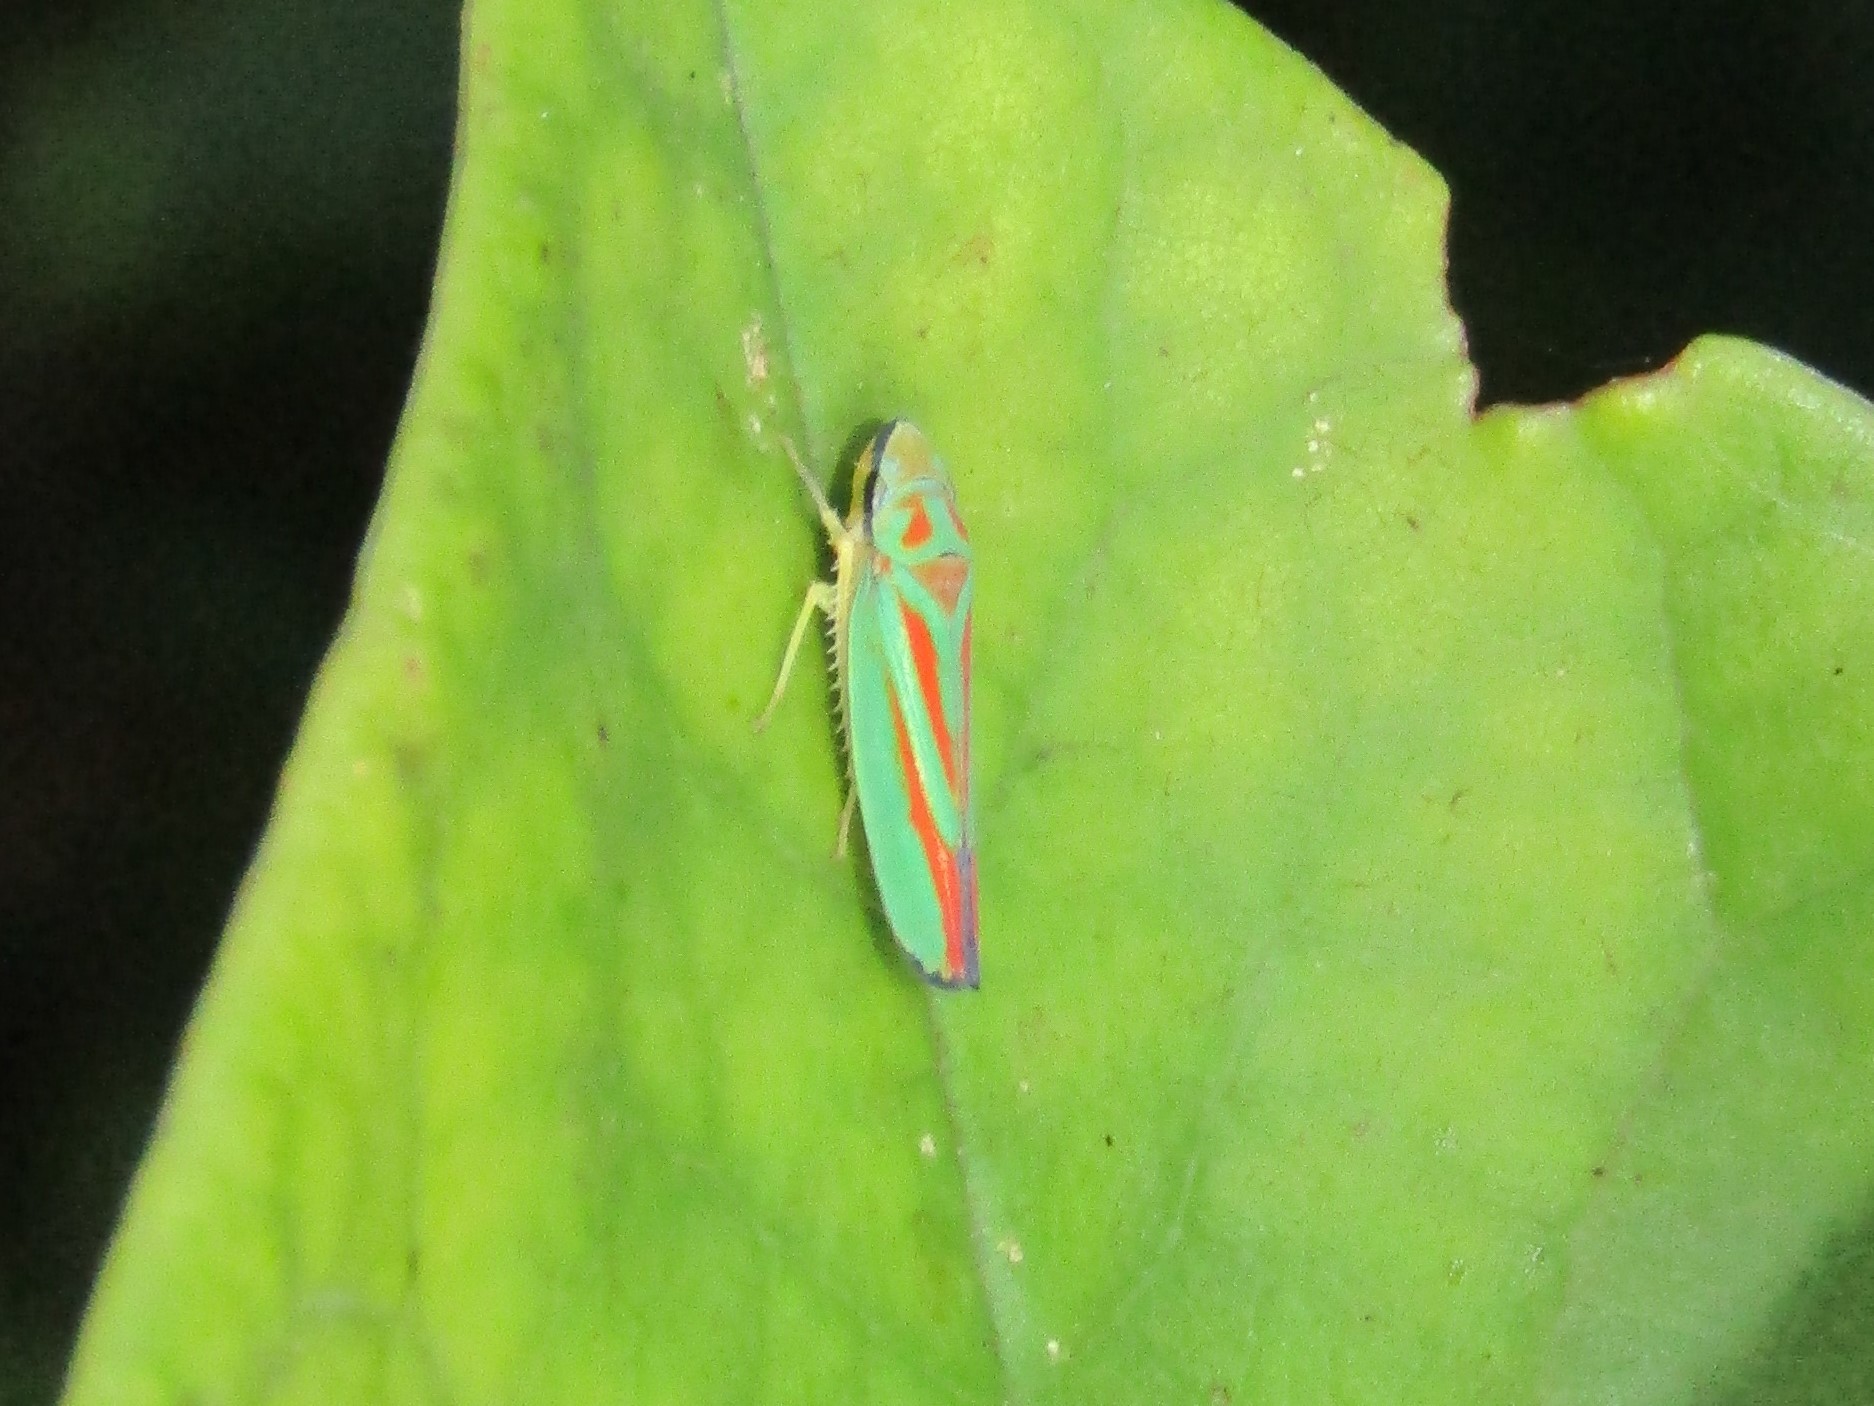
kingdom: Animalia
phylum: Arthropoda
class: Insecta
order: Hemiptera
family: Cicadellidae
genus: Graphocephala
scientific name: Graphocephala fennahi
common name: Rhododendron leafhopper
